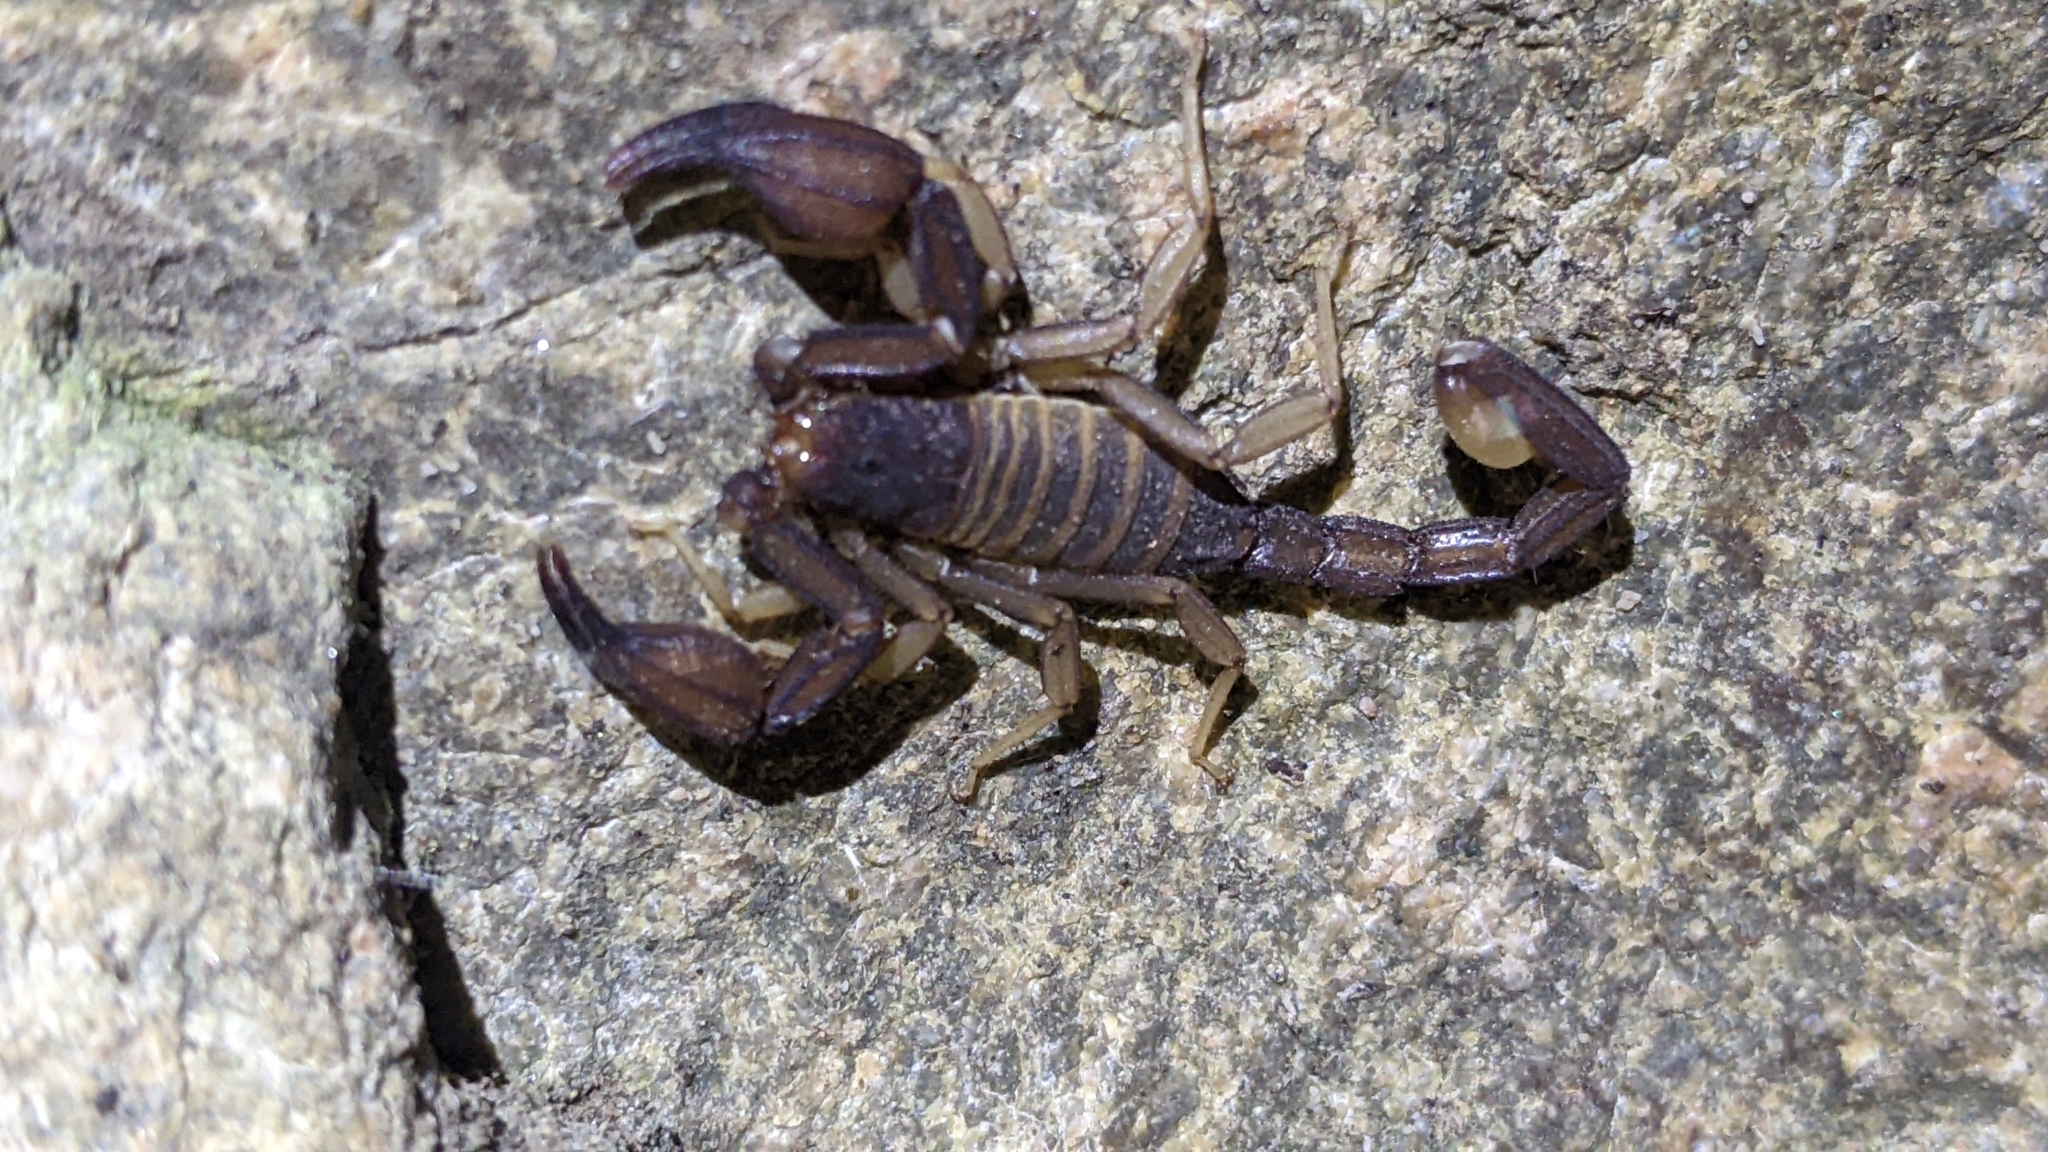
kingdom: Animalia
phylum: Arthropoda
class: Arachnida
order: Scorpiones
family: Vaejovidae
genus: Kovarikia
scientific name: Kovarikia oxy
